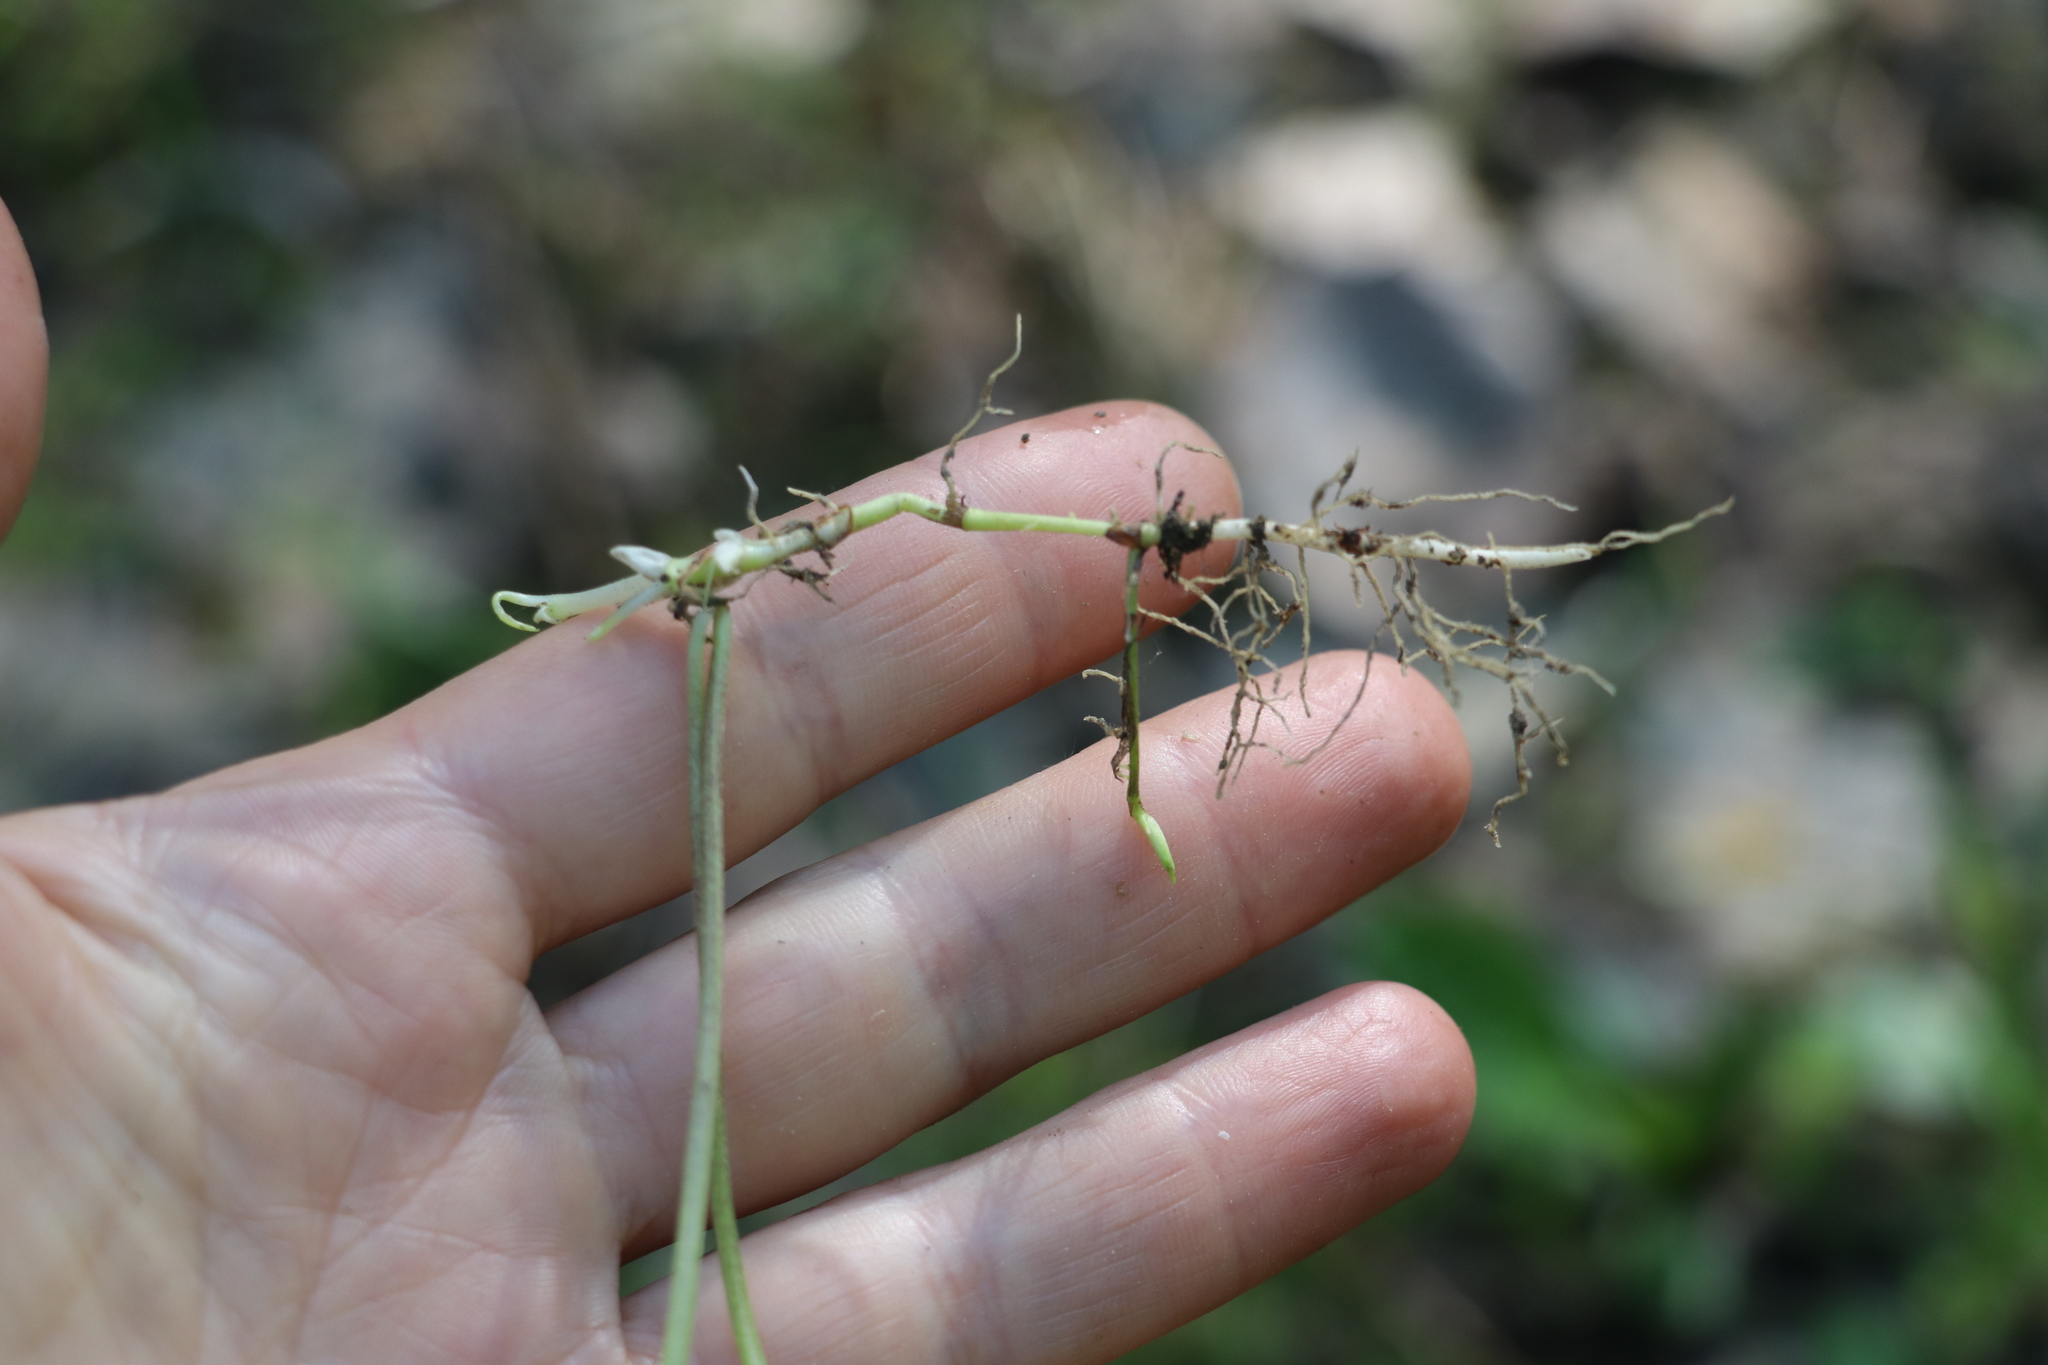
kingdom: Plantae
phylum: Tracheophyta
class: Magnoliopsida
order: Malpighiales
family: Violaceae
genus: Viola
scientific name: Viola epipsila
